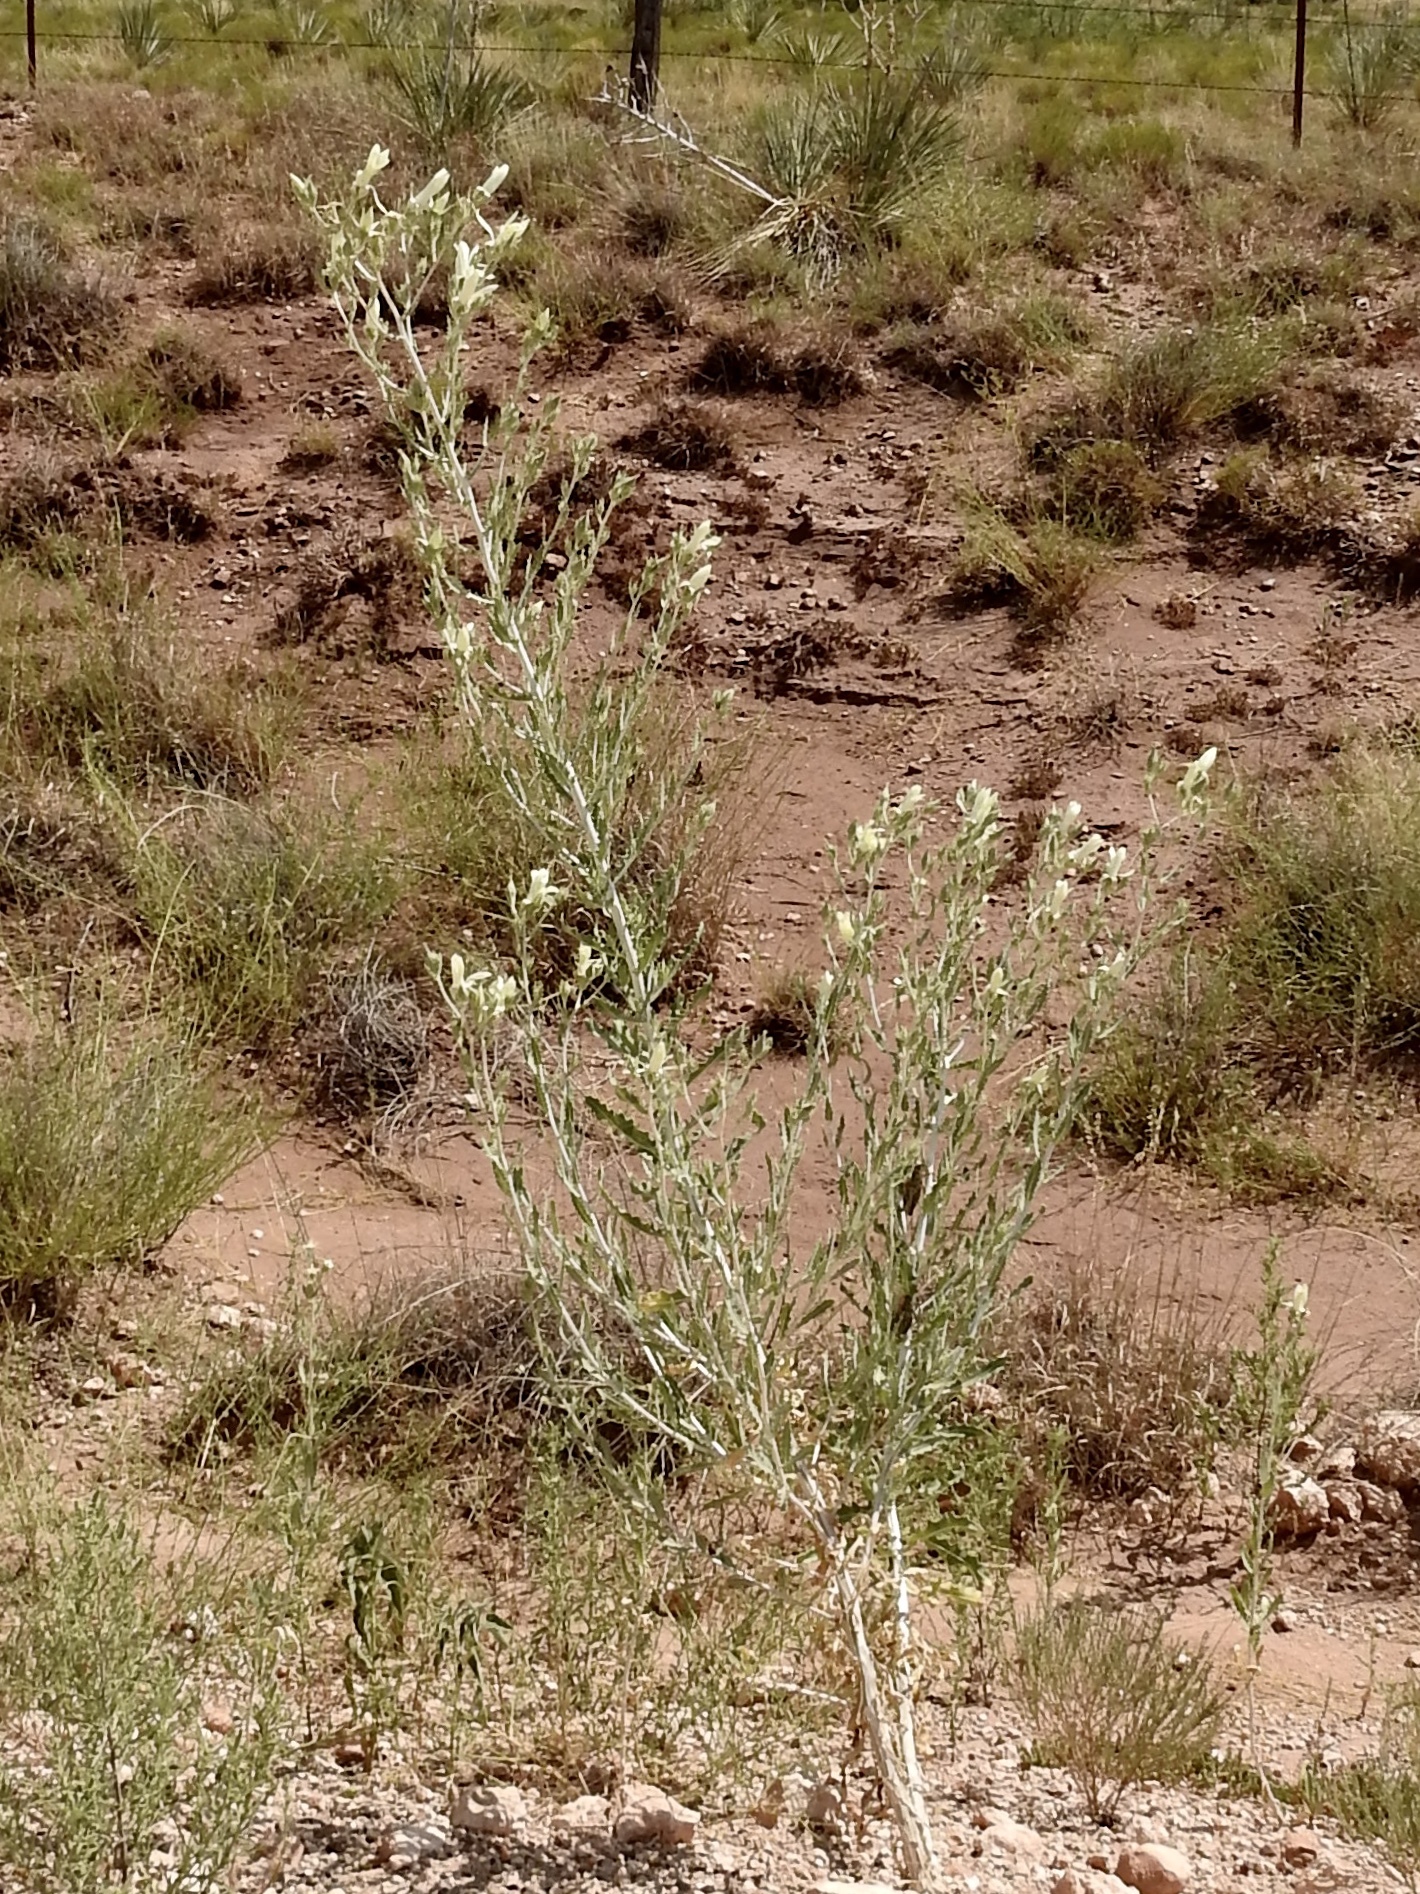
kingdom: Plantae
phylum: Tracheophyta
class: Magnoliopsida
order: Cornales
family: Loasaceae
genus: Mentzelia
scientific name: Mentzelia nuda
